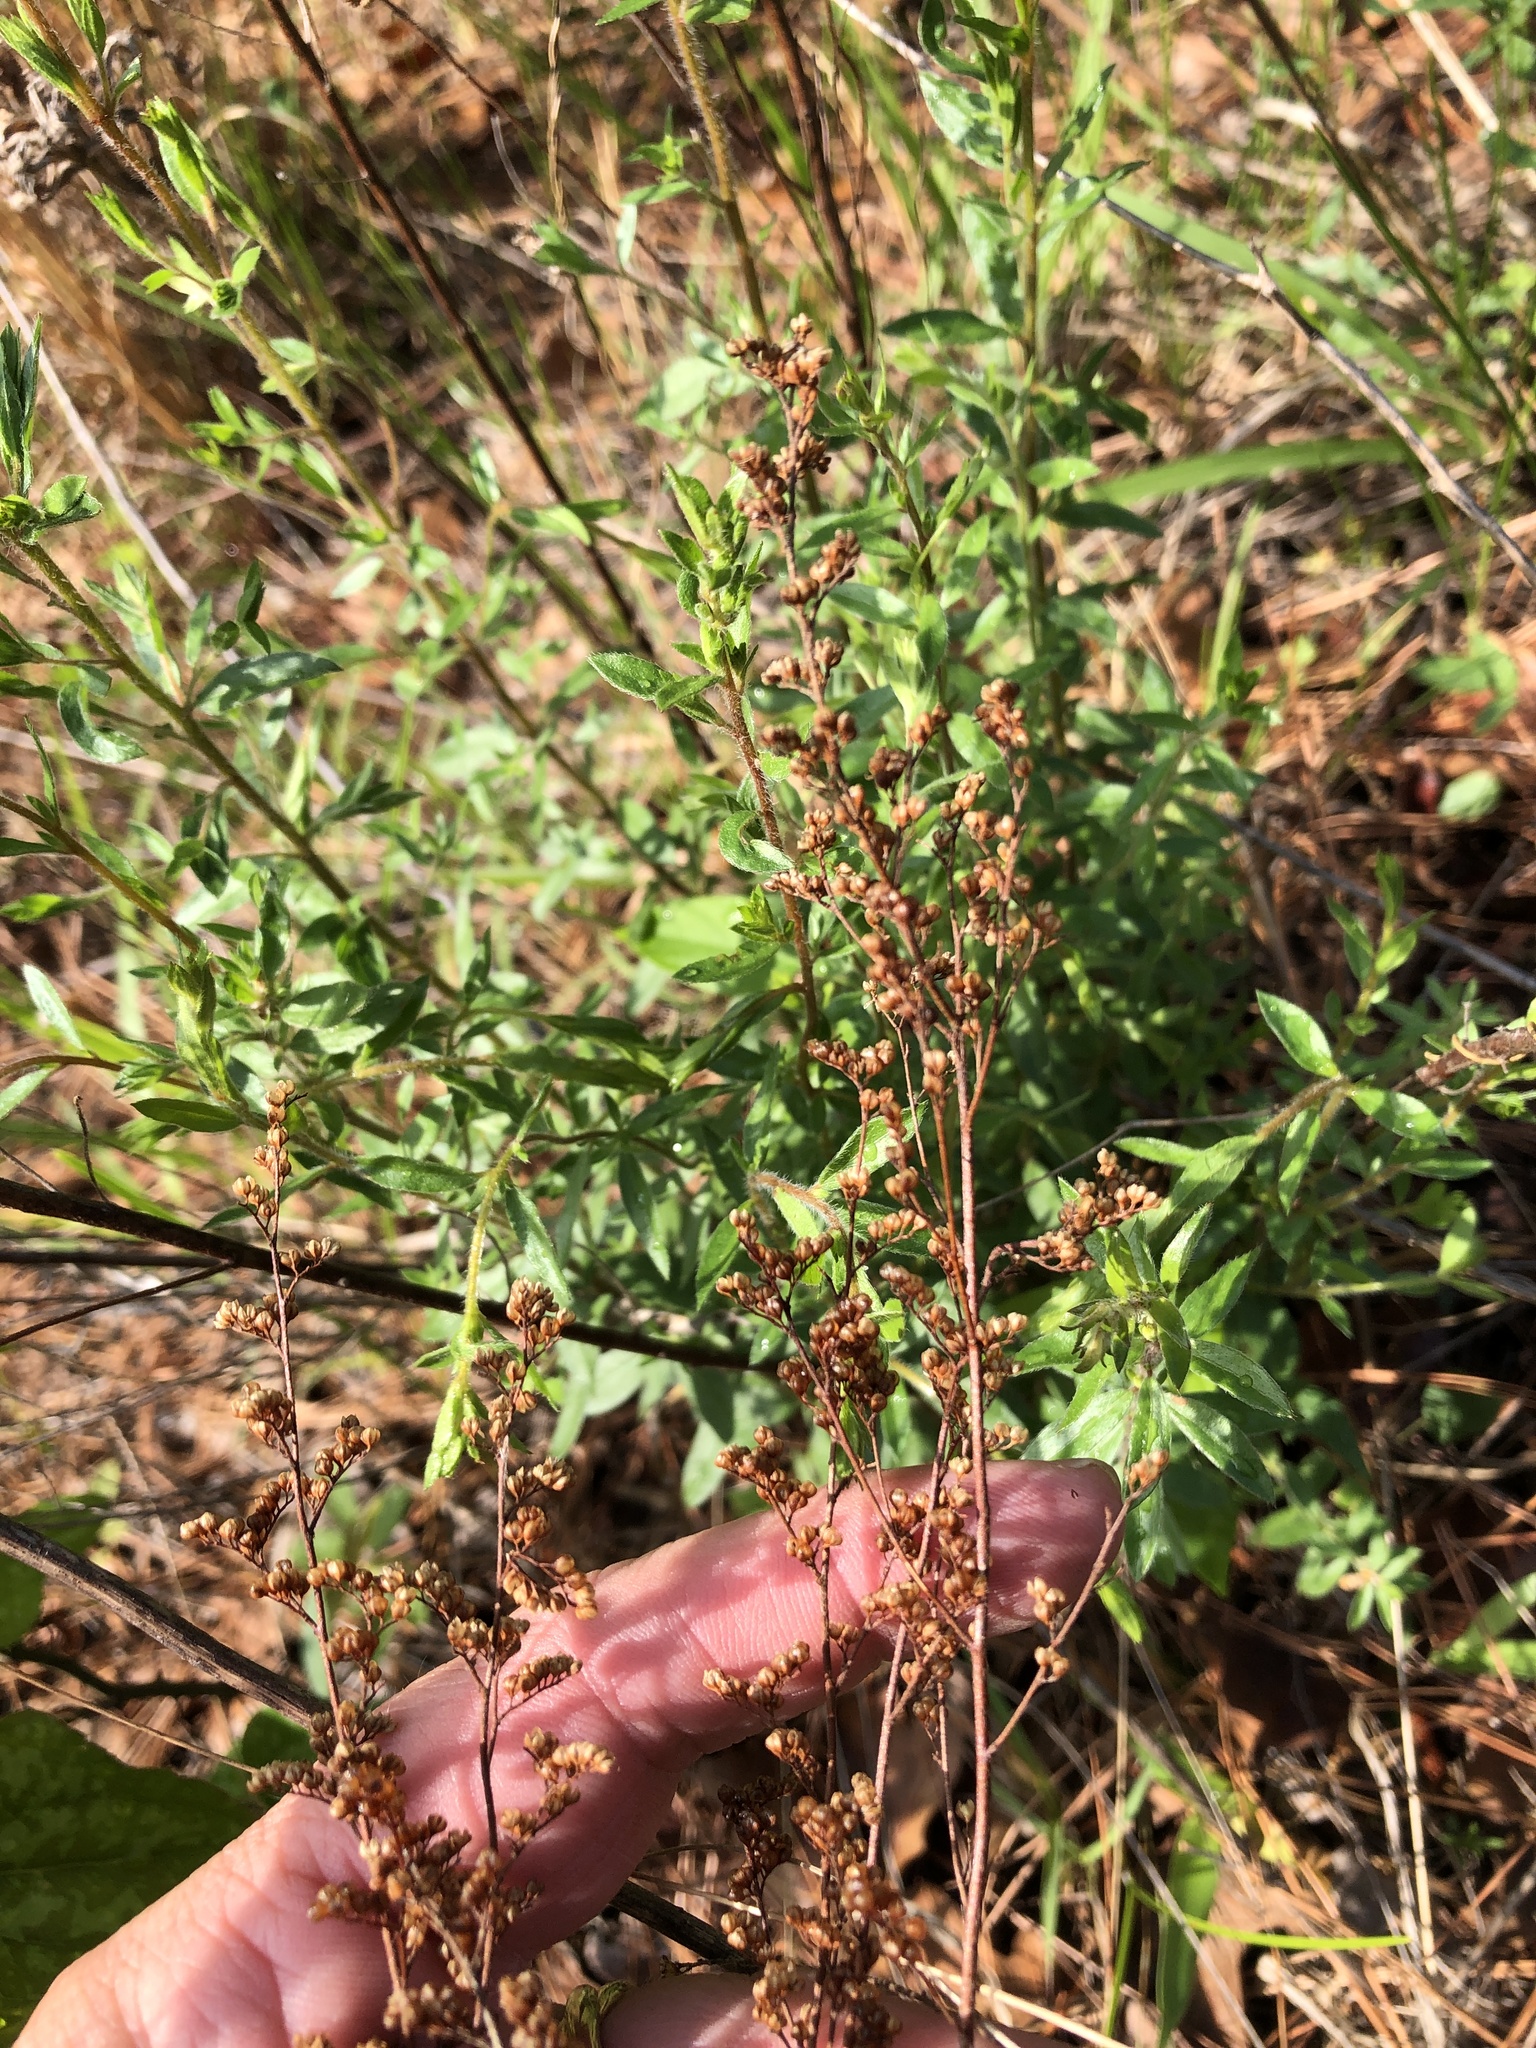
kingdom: Plantae
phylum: Tracheophyta
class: Magnoliopsida
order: Malvales
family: Cistaceae
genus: Lechea
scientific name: Lechea mucronata
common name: Hairy pinweed
